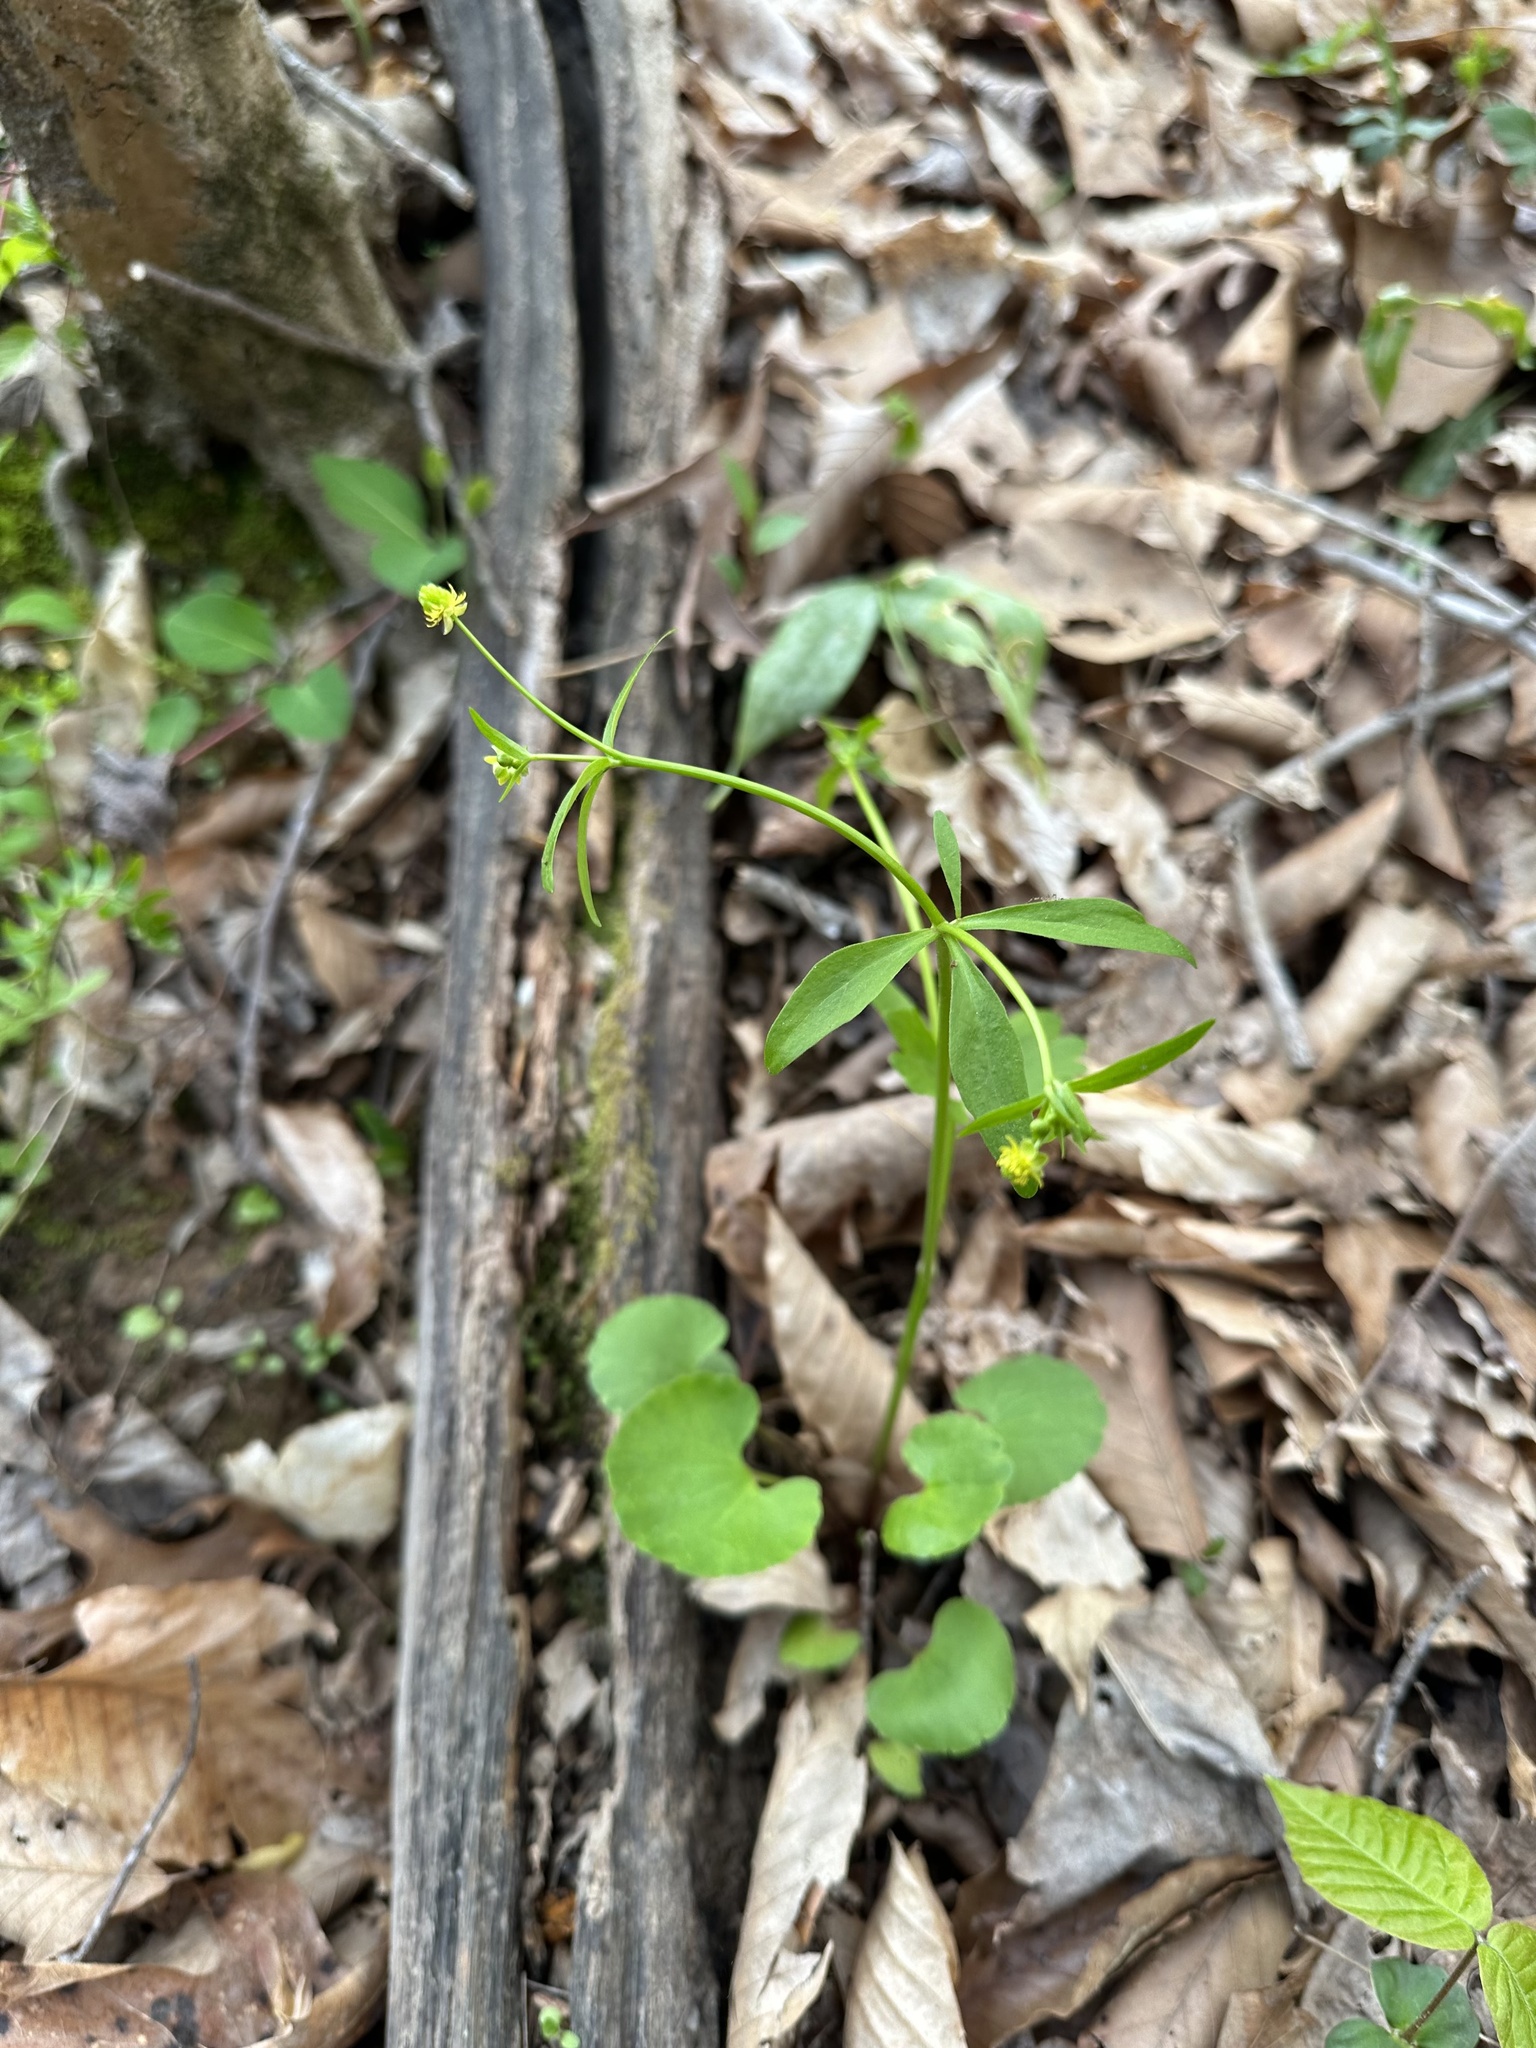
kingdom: Plantae
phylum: Tracheophyta
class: Magnoliopsida
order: Ranunculales
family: Ranunculaceae
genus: Ranunculus
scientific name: Ranunculus abortivus
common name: Early wood buttercup
